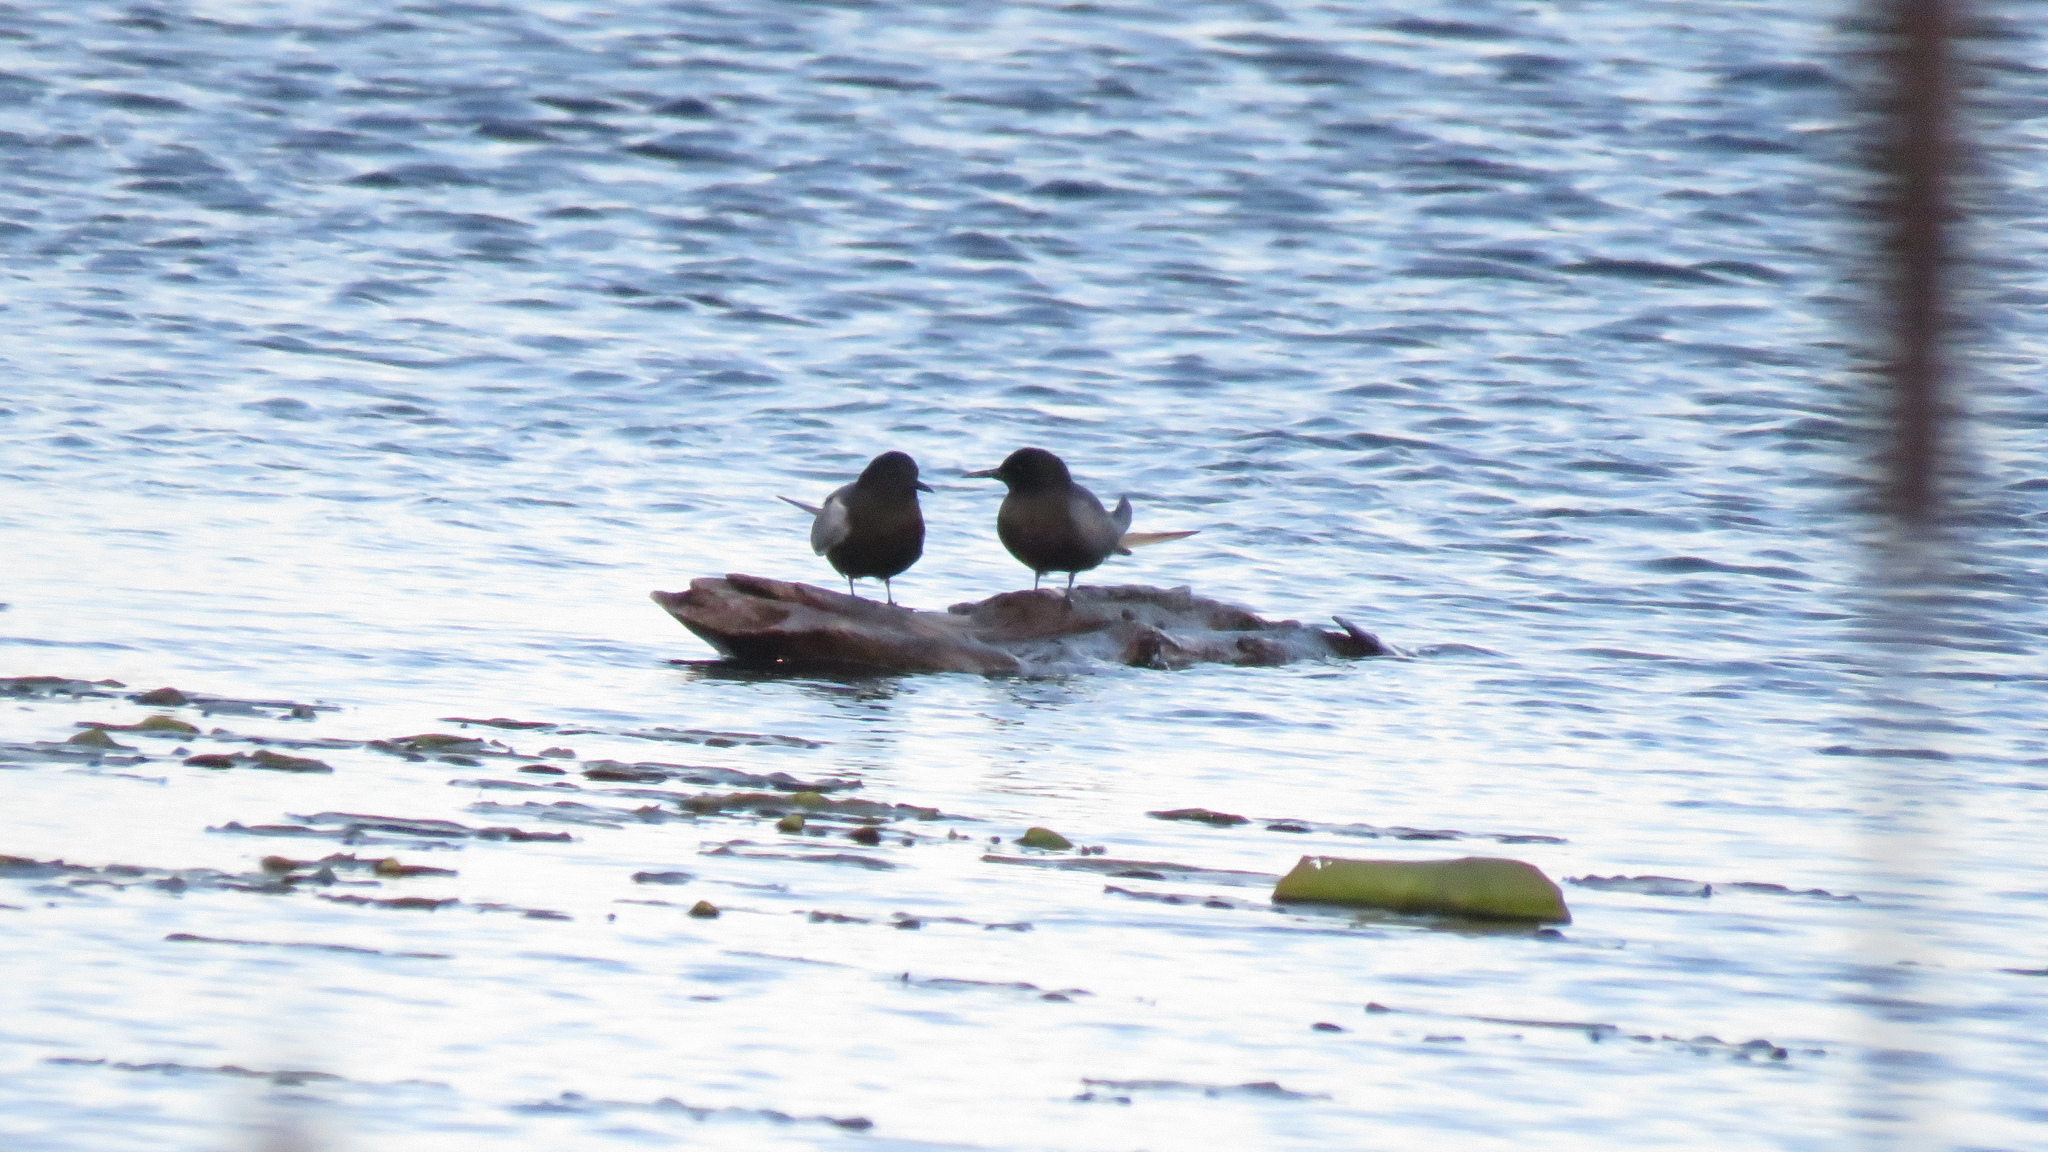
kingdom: Animalia
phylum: Chordata
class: Aves
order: Charadriiformes
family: Laridae
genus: Chlidonias
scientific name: Chlidonias niger
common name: Black tern
